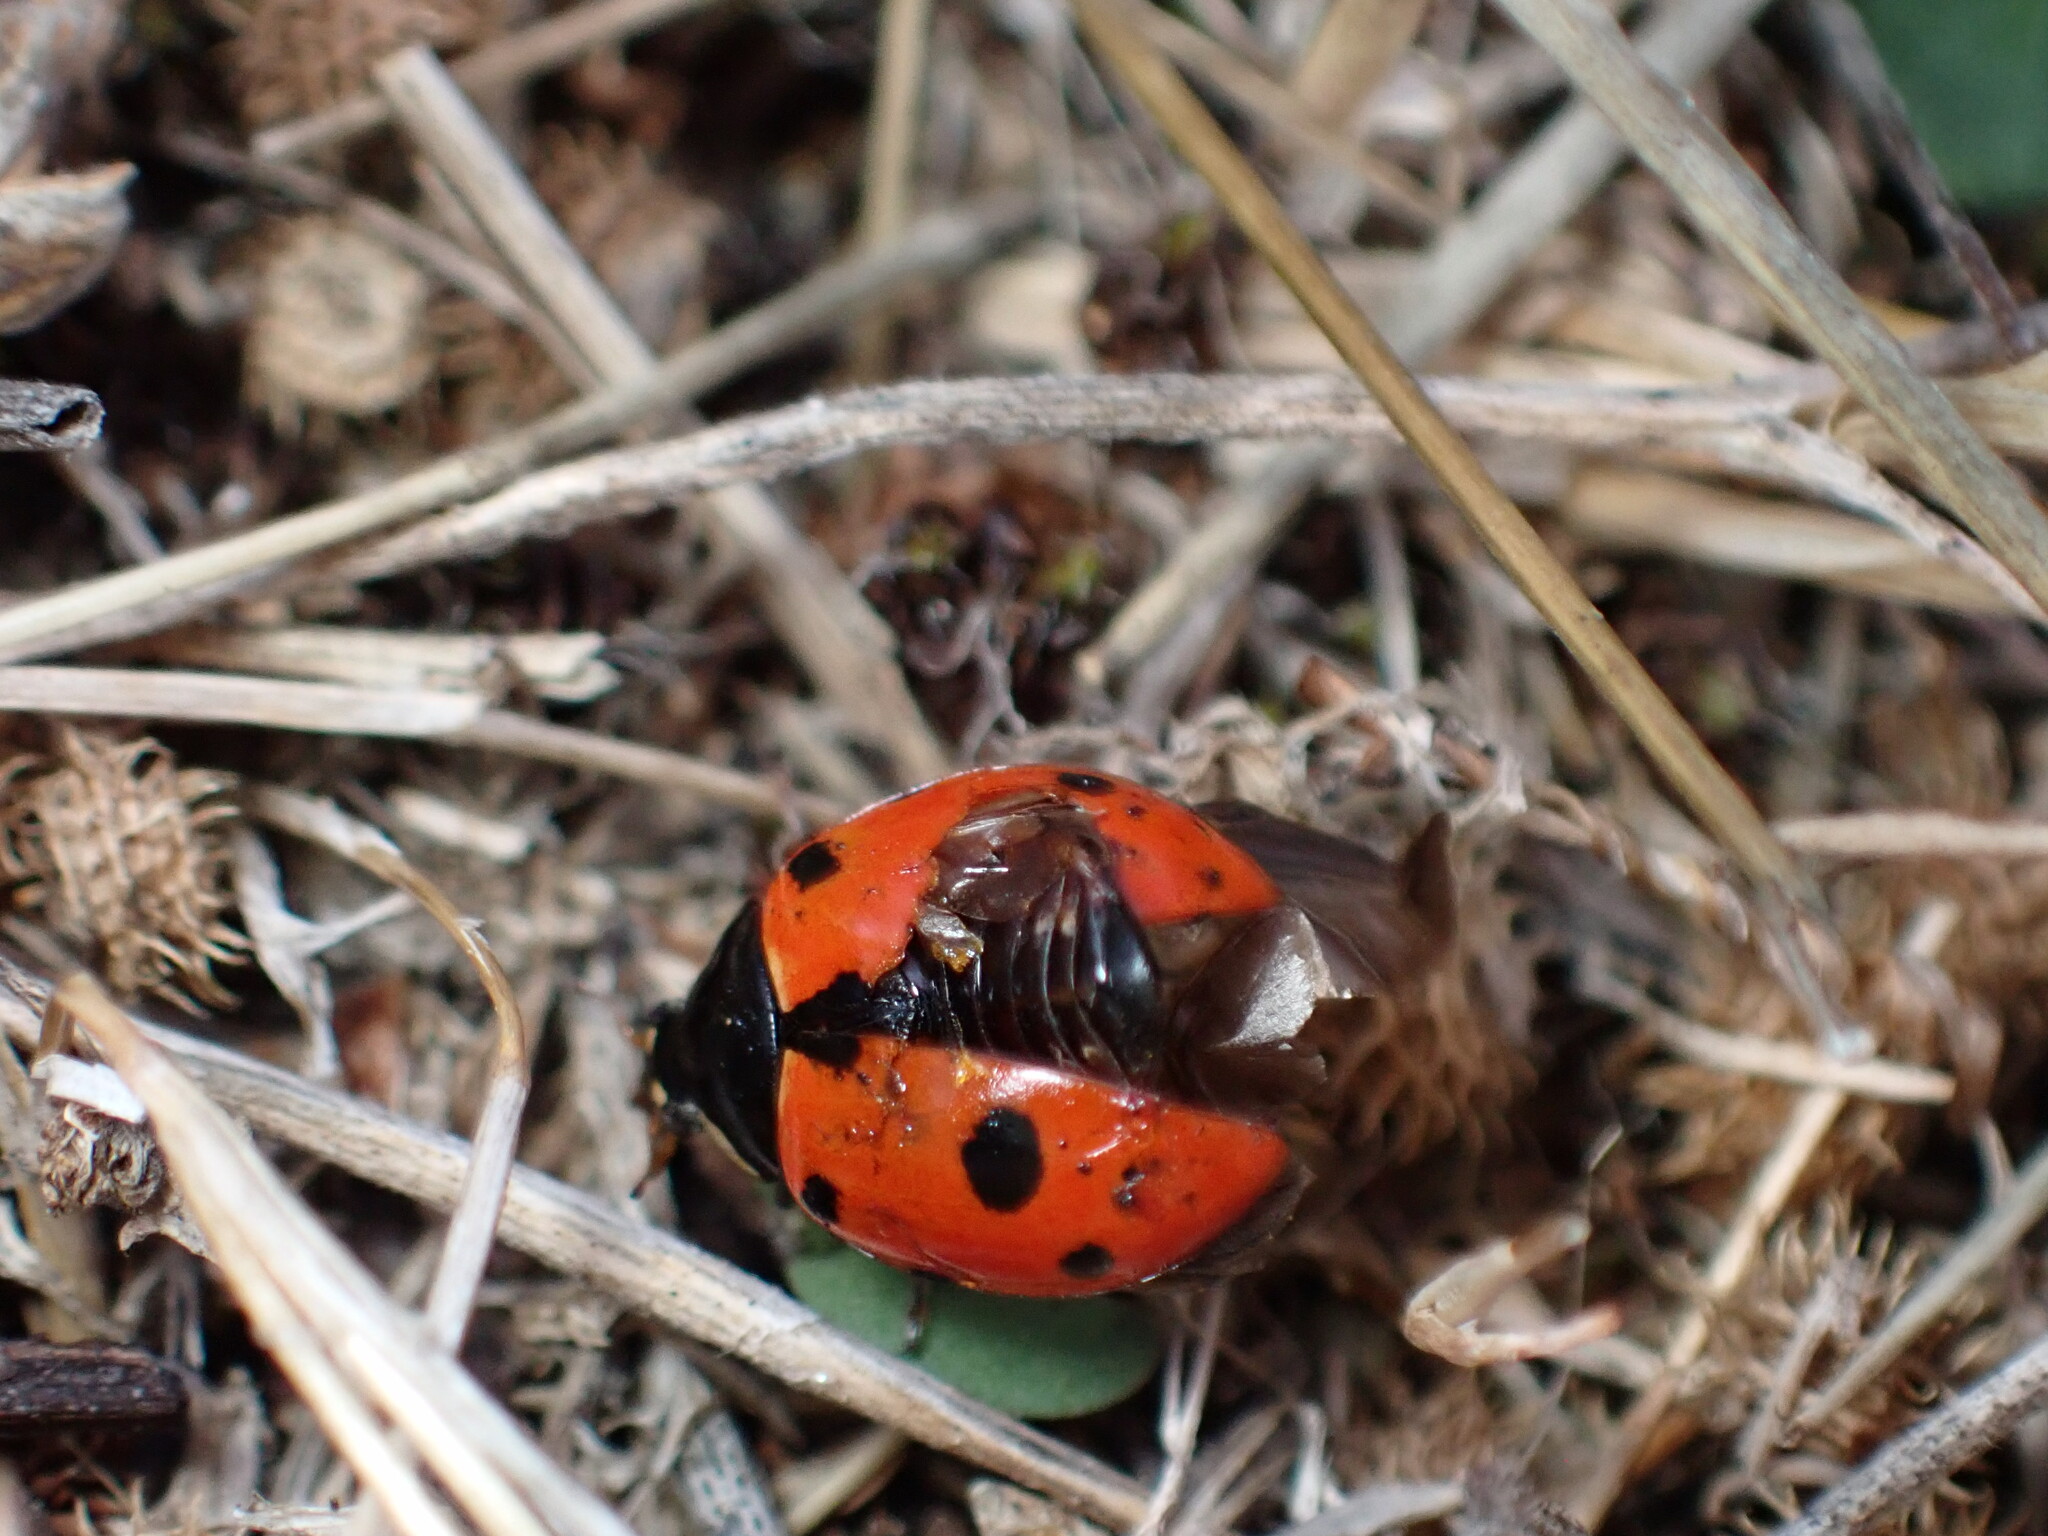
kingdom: Animalia
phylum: Arthropoda
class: Insecta
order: Coleoptera
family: Coccinellidae
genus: Ceratomegilla
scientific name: Ceratomegilla undecimnotata
